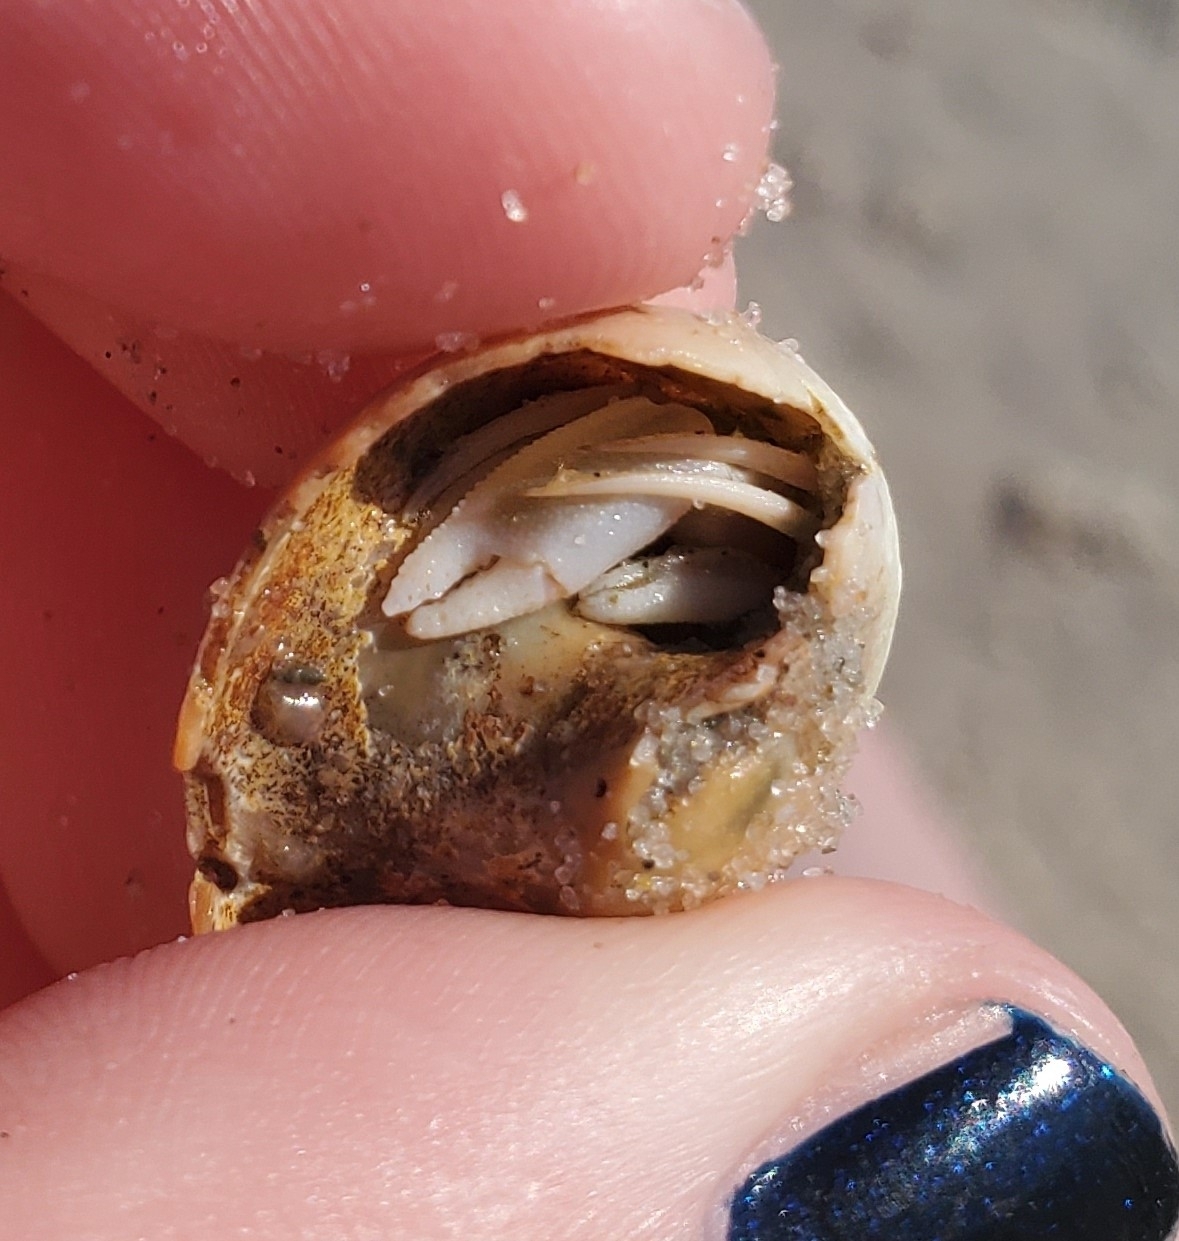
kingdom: Animalia
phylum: Arthropoda
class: Malacostraca
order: Decapoda
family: Paguridae
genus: Pagurus
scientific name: Pagurus longicarpus
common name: Long-armed hermit crab
